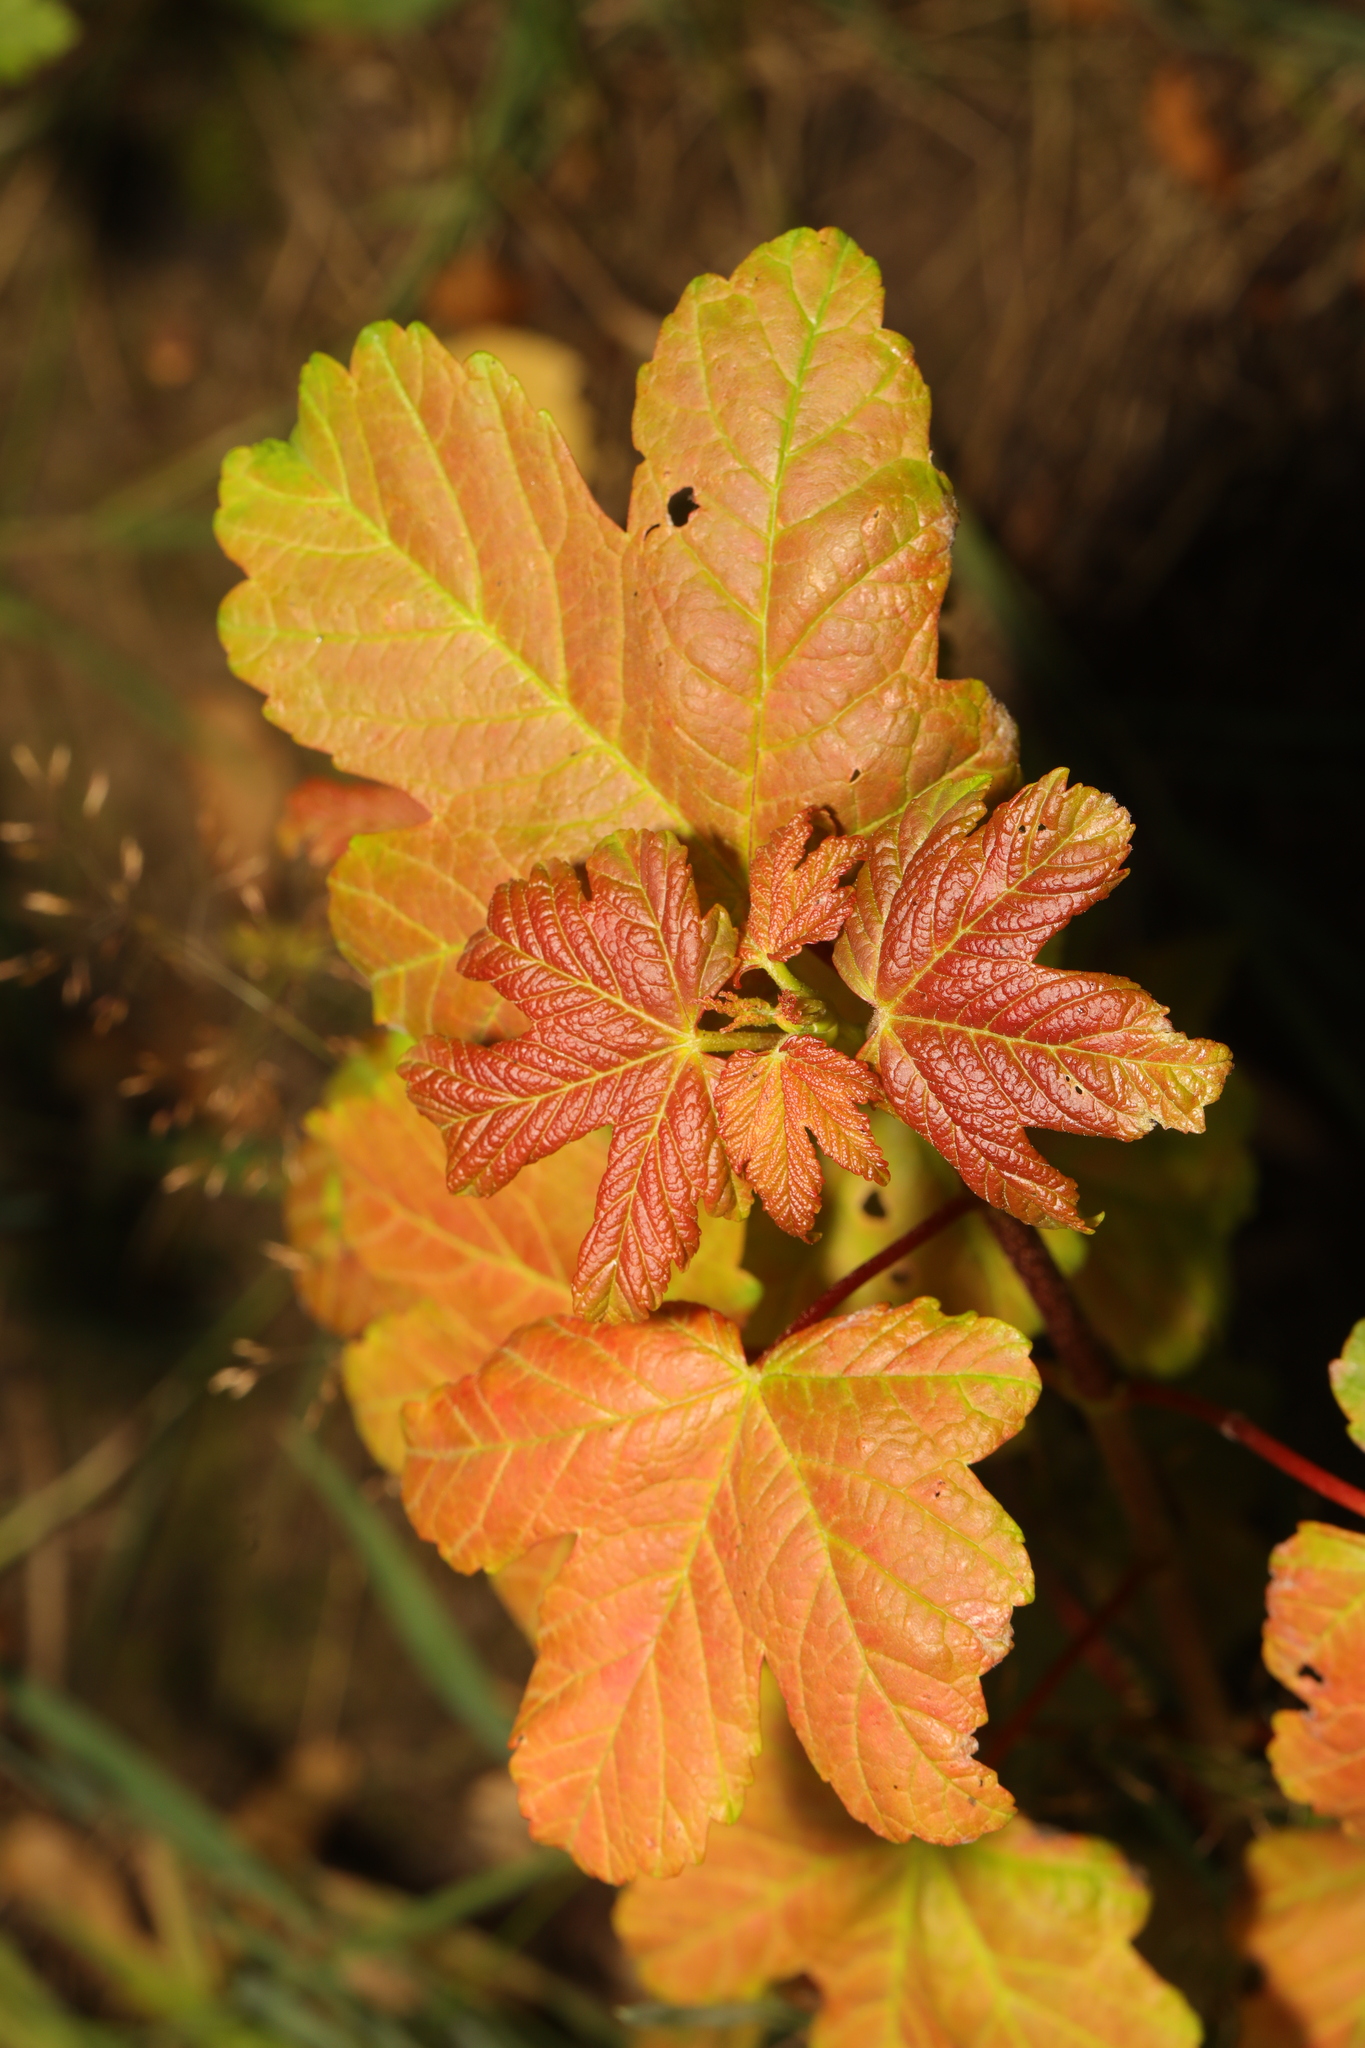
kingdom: Plantae
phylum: Tracheophyta
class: Magnoliopsida
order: Sapindales
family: Sapindaceae
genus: Acer
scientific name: Acer pseudoplatanus
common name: Sycamore
